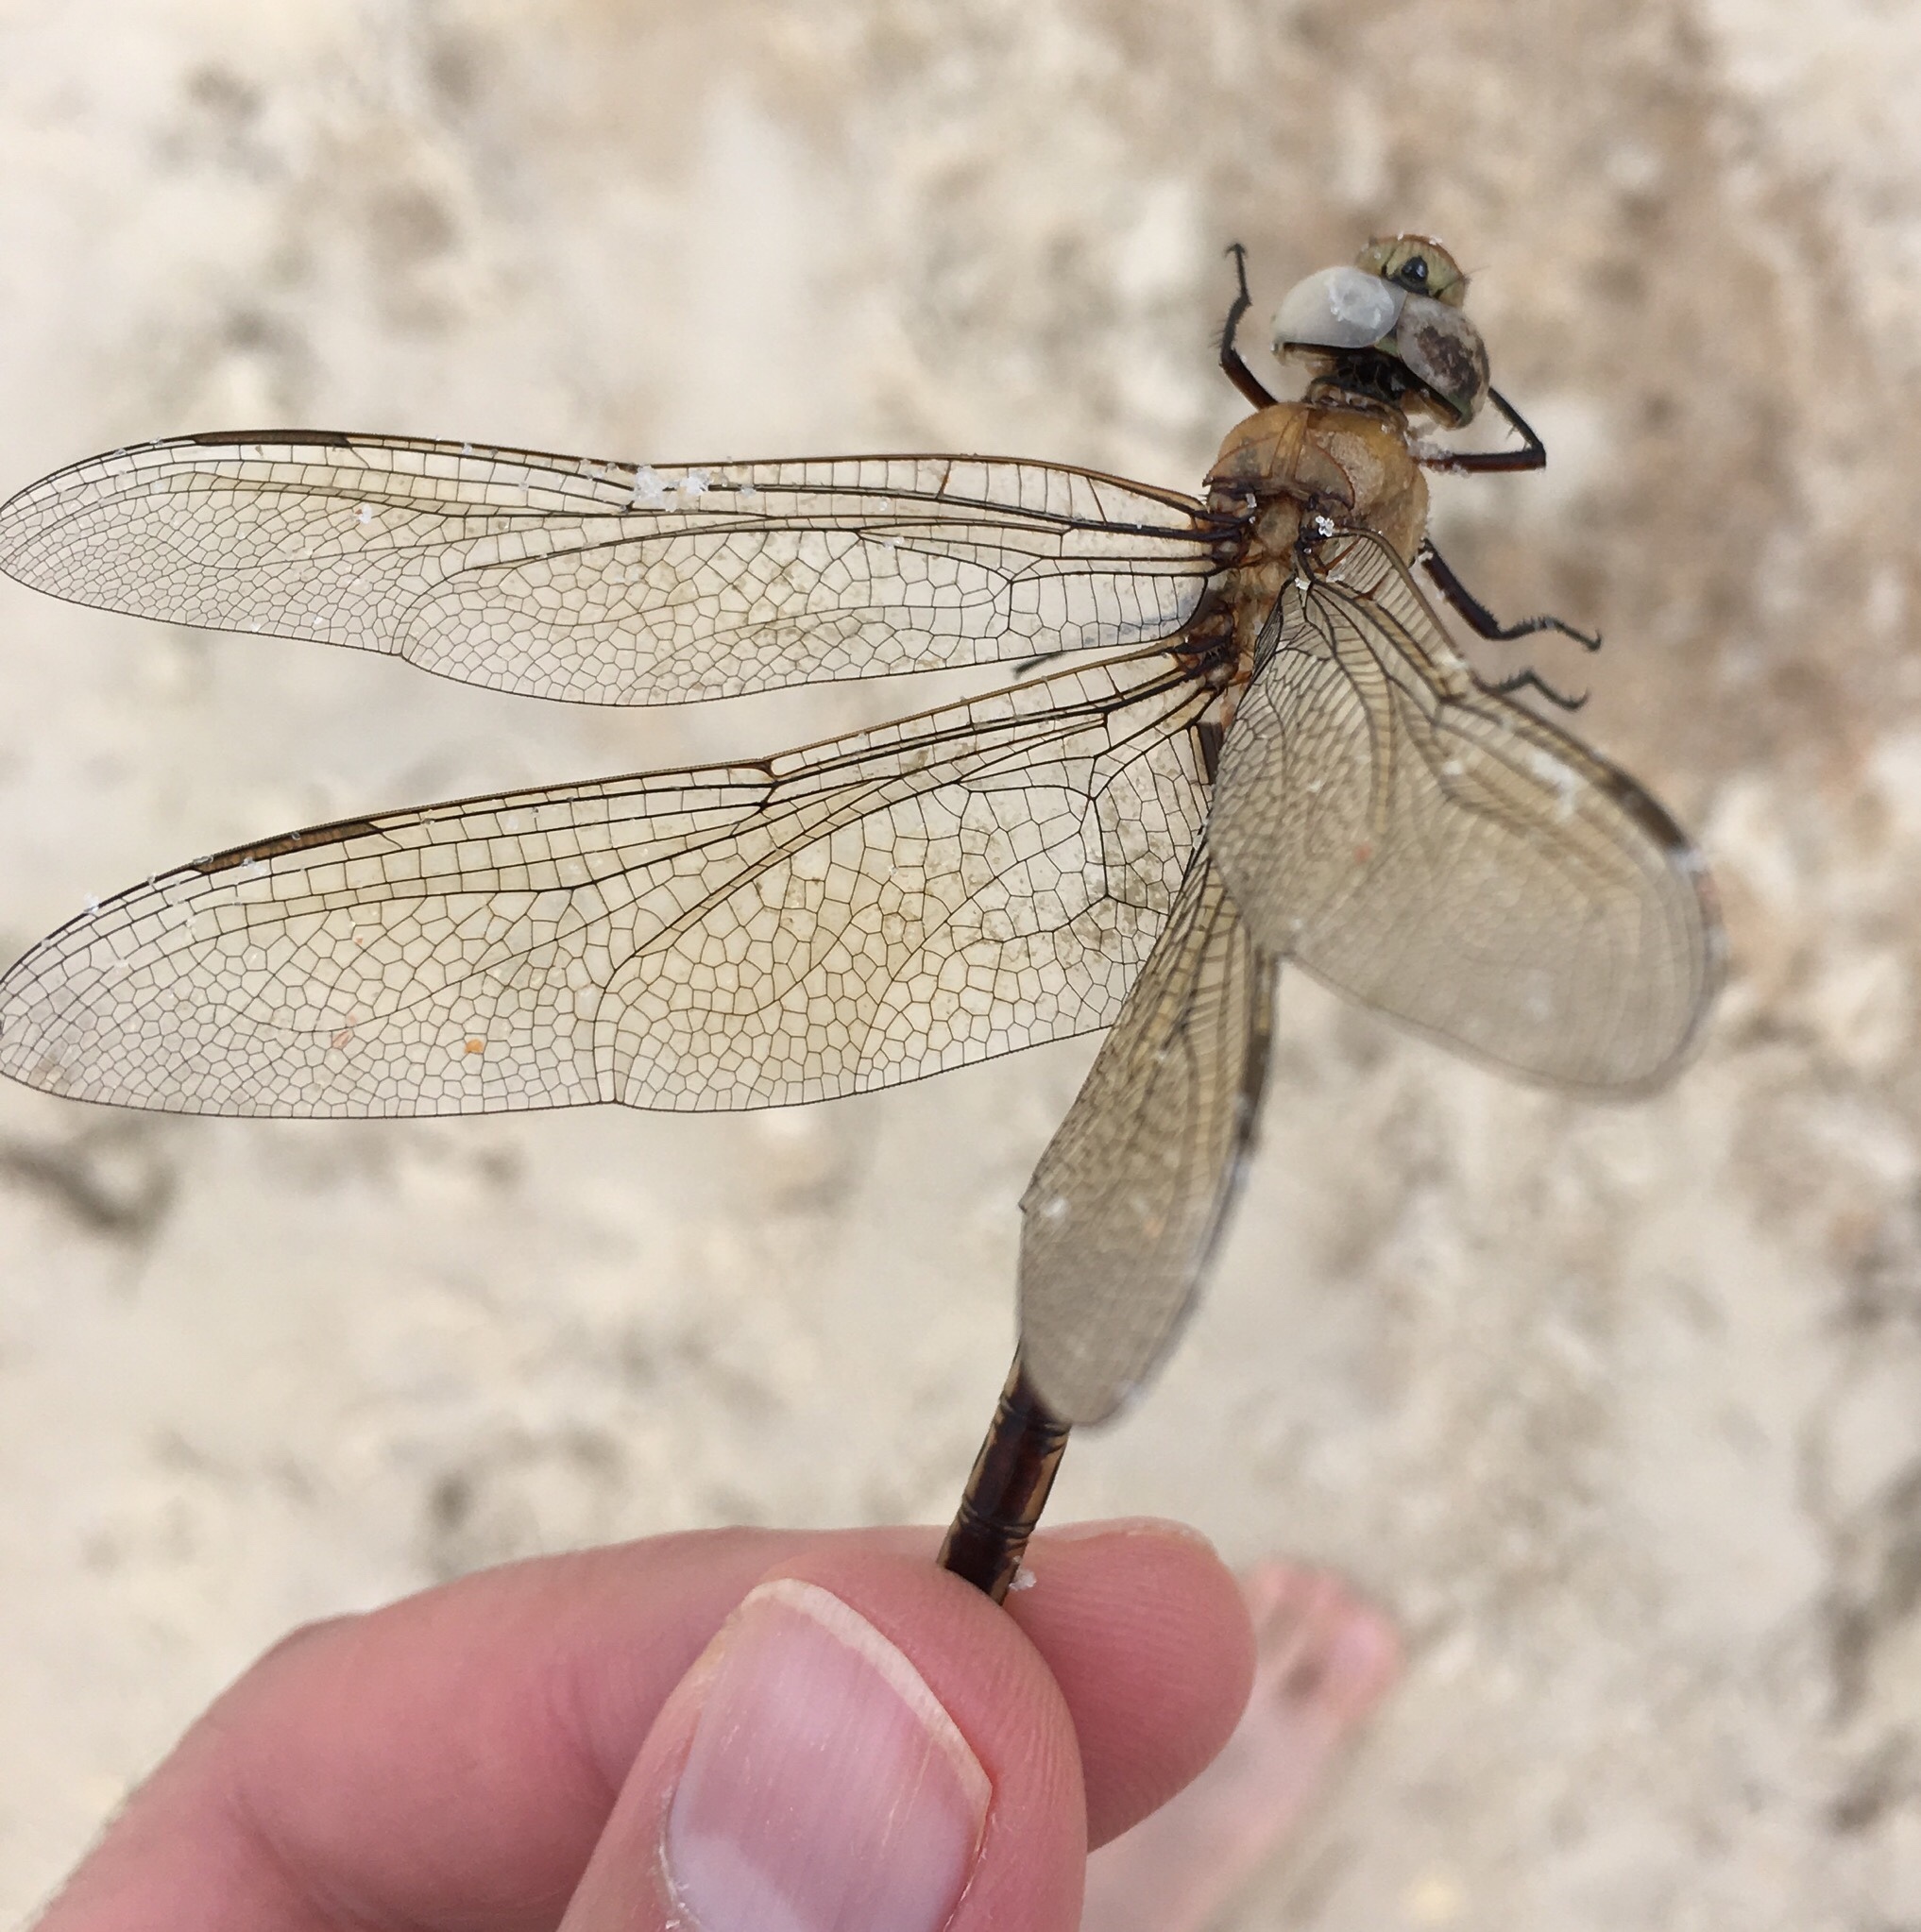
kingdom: Animalia
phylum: Arthropoda
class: Insecta
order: Odonata
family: Aeshnidae
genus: Anax
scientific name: Anax junius
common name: Common green darner
